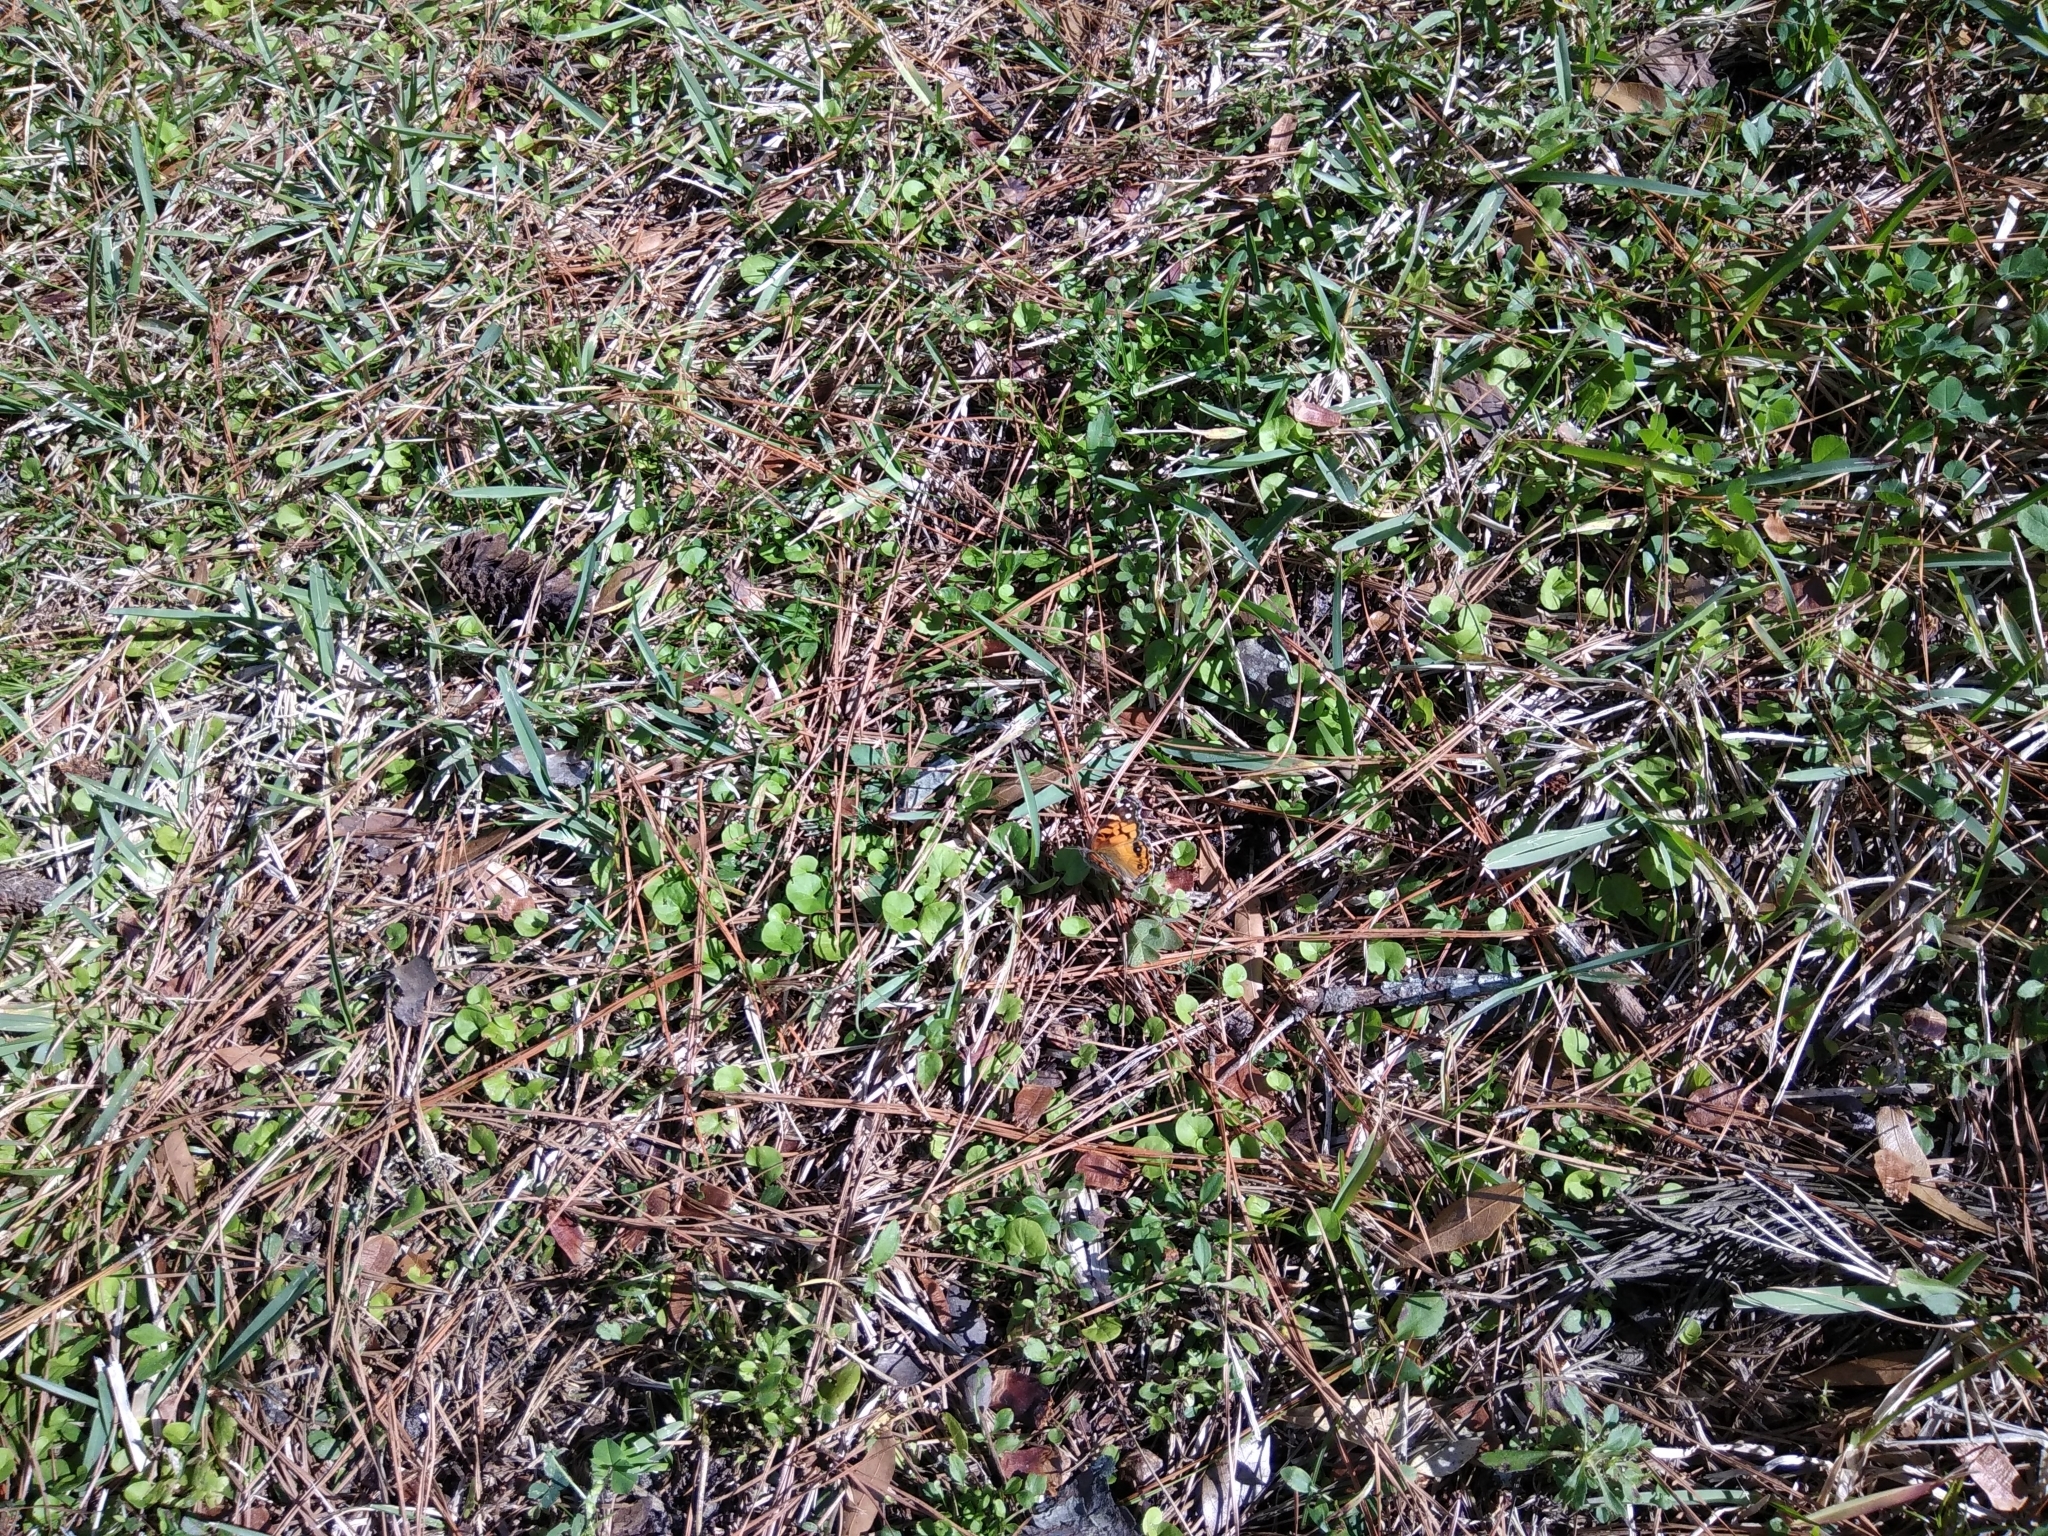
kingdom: Animalia
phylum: Arthropoda
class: Insecta
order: Lepidoptera
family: Nymphalidae
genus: Vanessa
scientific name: Vanessa virginiensis
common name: American lady
